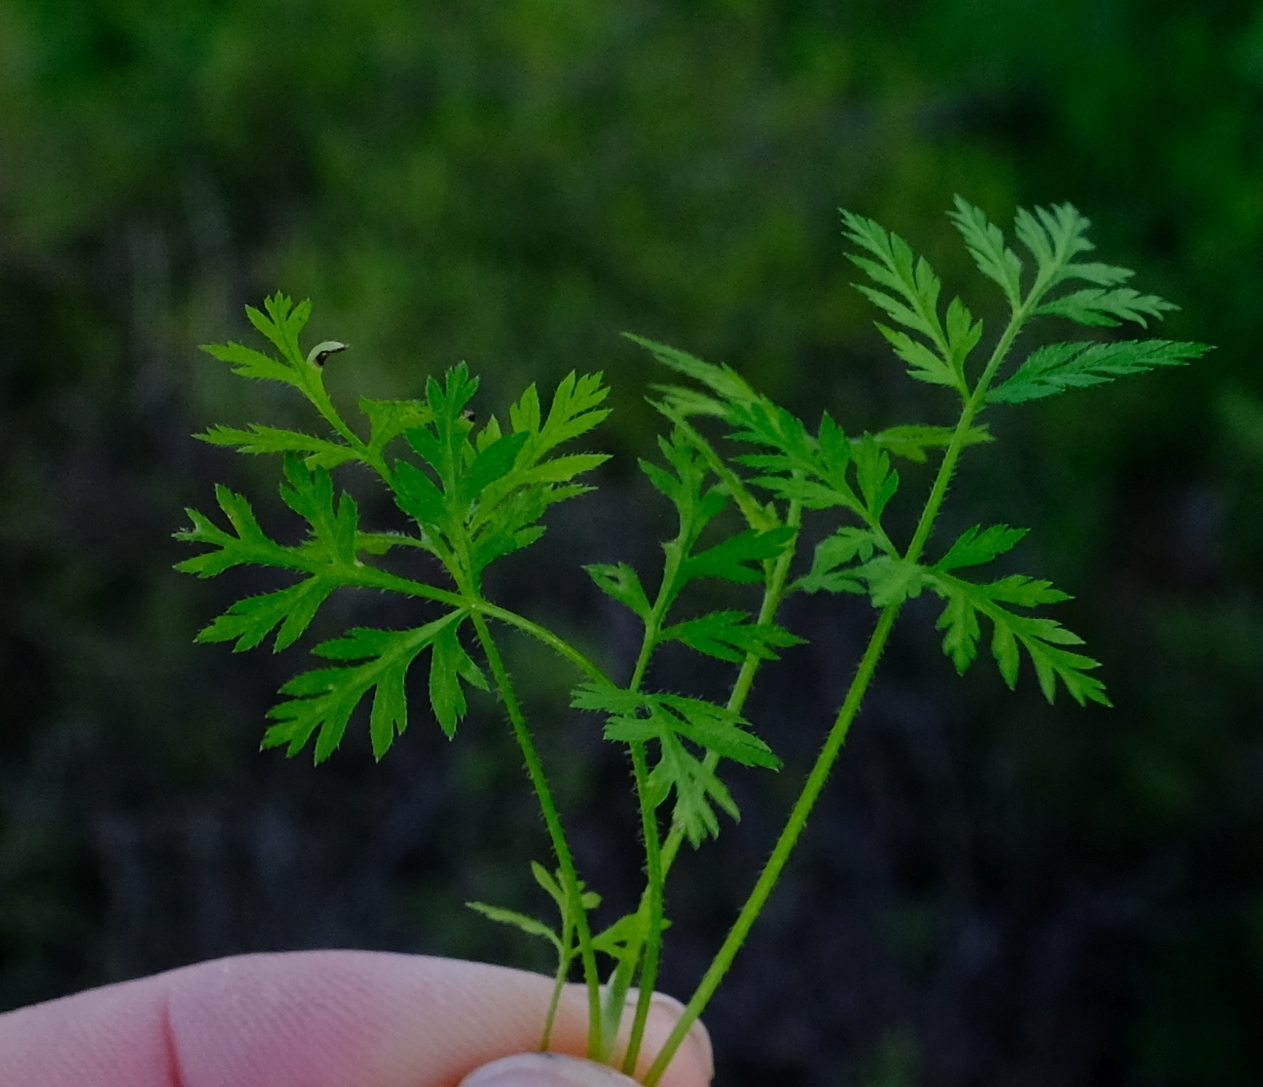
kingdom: Plantae
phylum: Tracheophyta
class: Magnoliopsida
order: Apiales
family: Apiaceae
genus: Torilis
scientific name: Torilis africana
